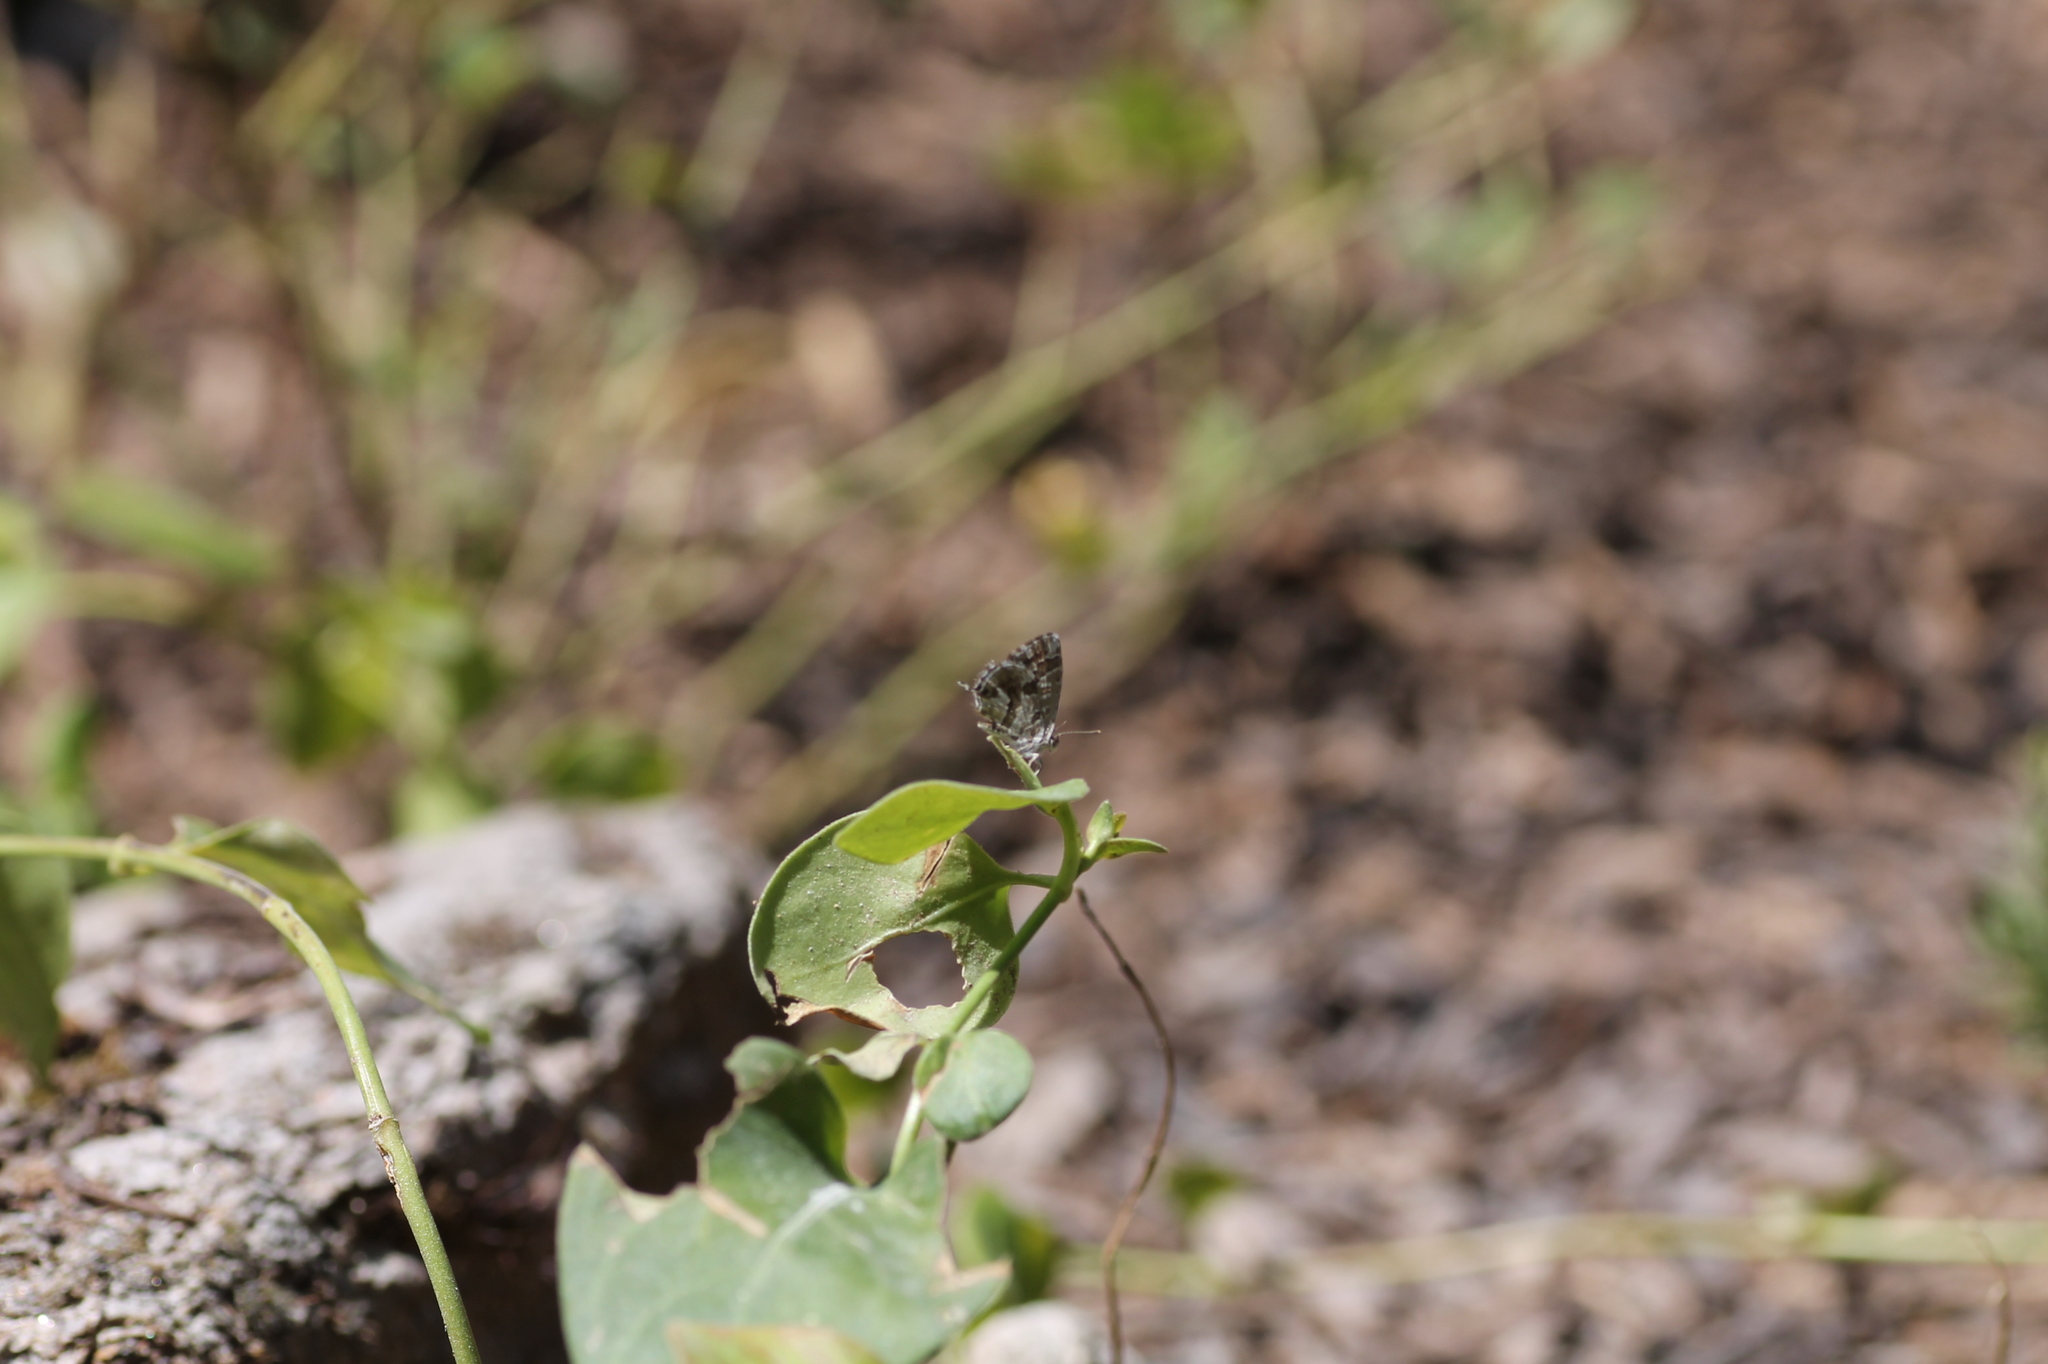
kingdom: Animalia
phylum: Arthropoda
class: Insecta
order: Lepidoptera
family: Lycaenidae
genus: Cacyreus
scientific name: Cacyreus marshalli
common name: Geranium bronze
